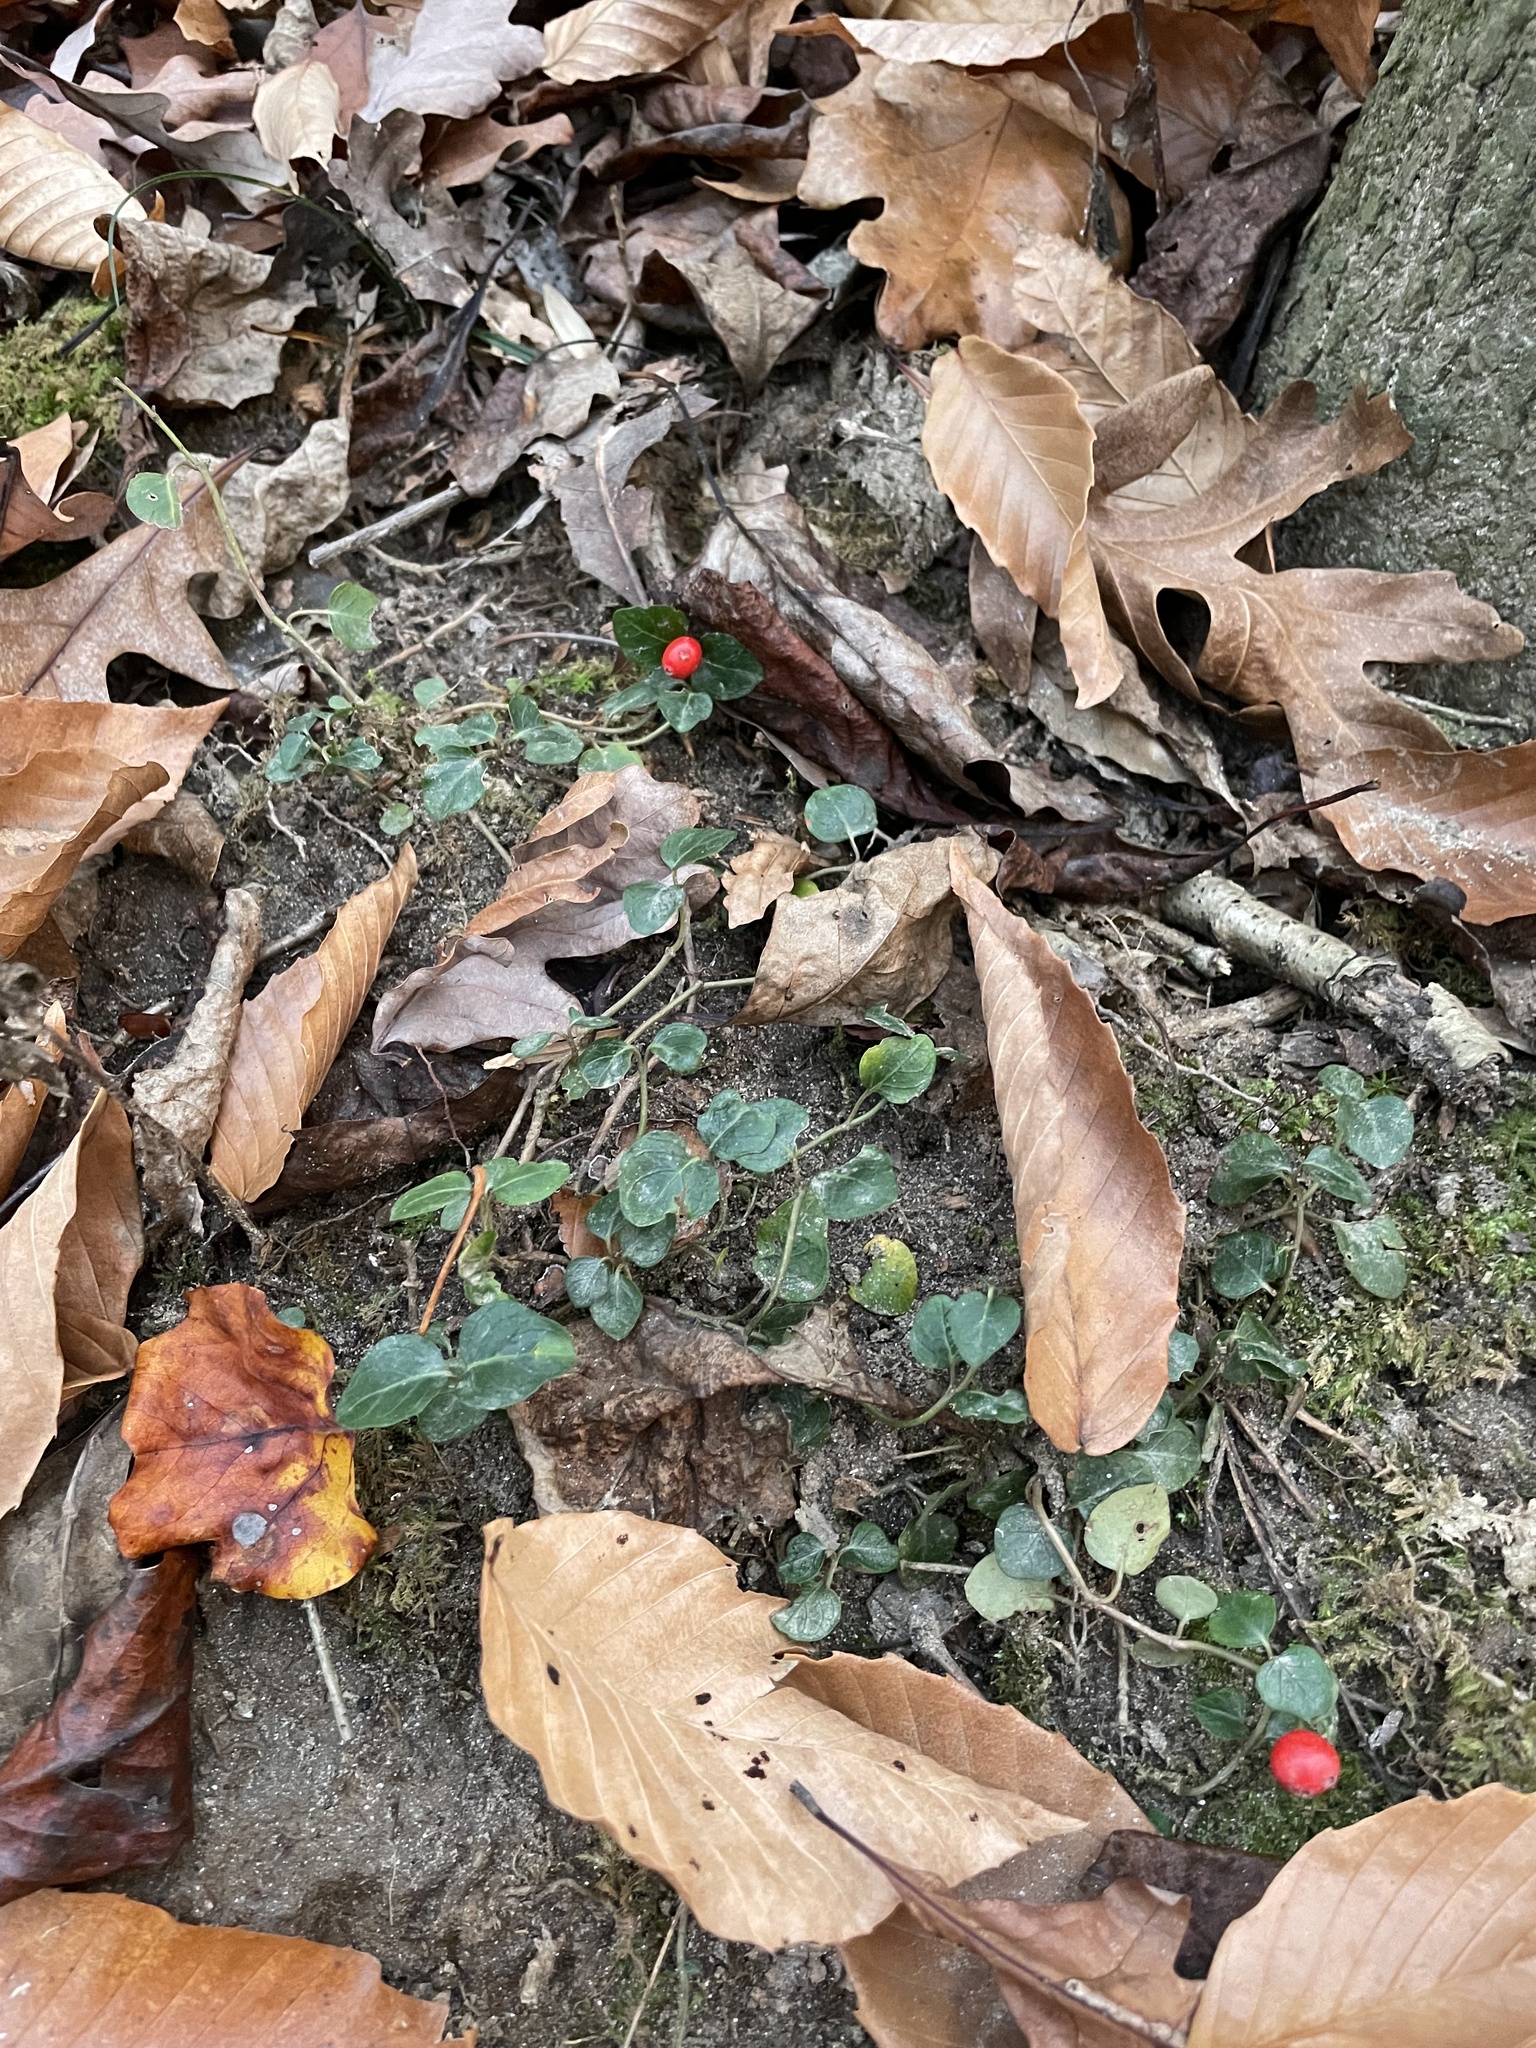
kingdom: Plantae
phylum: Tracheophyta
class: Magnoliopsida
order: Gentianales
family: Rubiaceae
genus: Mitchella
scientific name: Mitchella repens
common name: Partridge-berry
